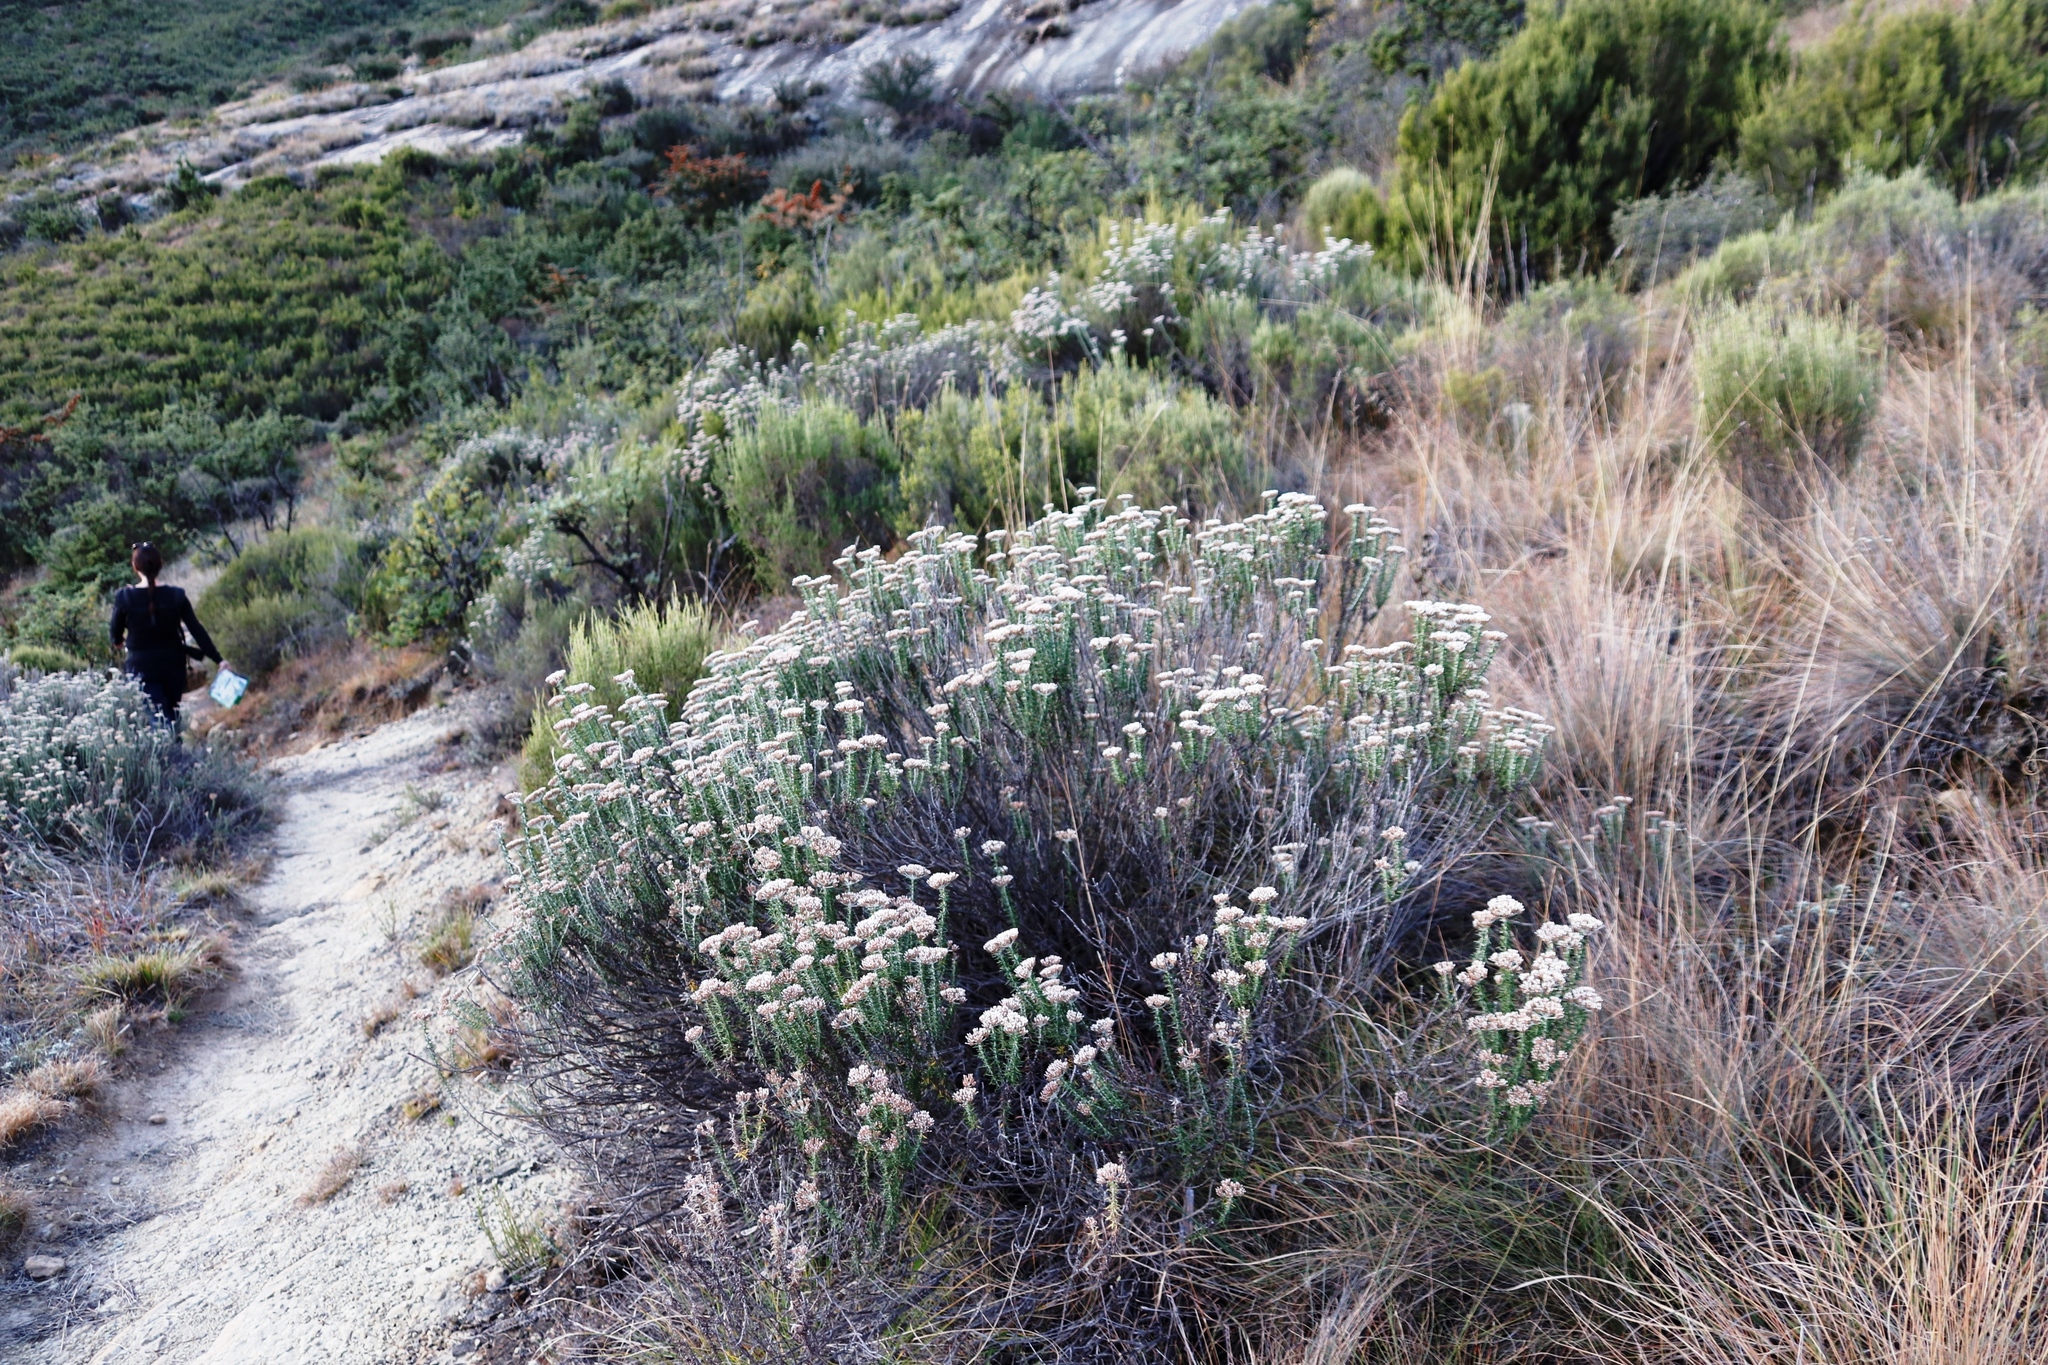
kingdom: Plantae
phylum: Tracheophyta
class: Magnoliopsida
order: Asterales
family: Asteraceae
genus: Metalasia
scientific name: Metalasia densa
